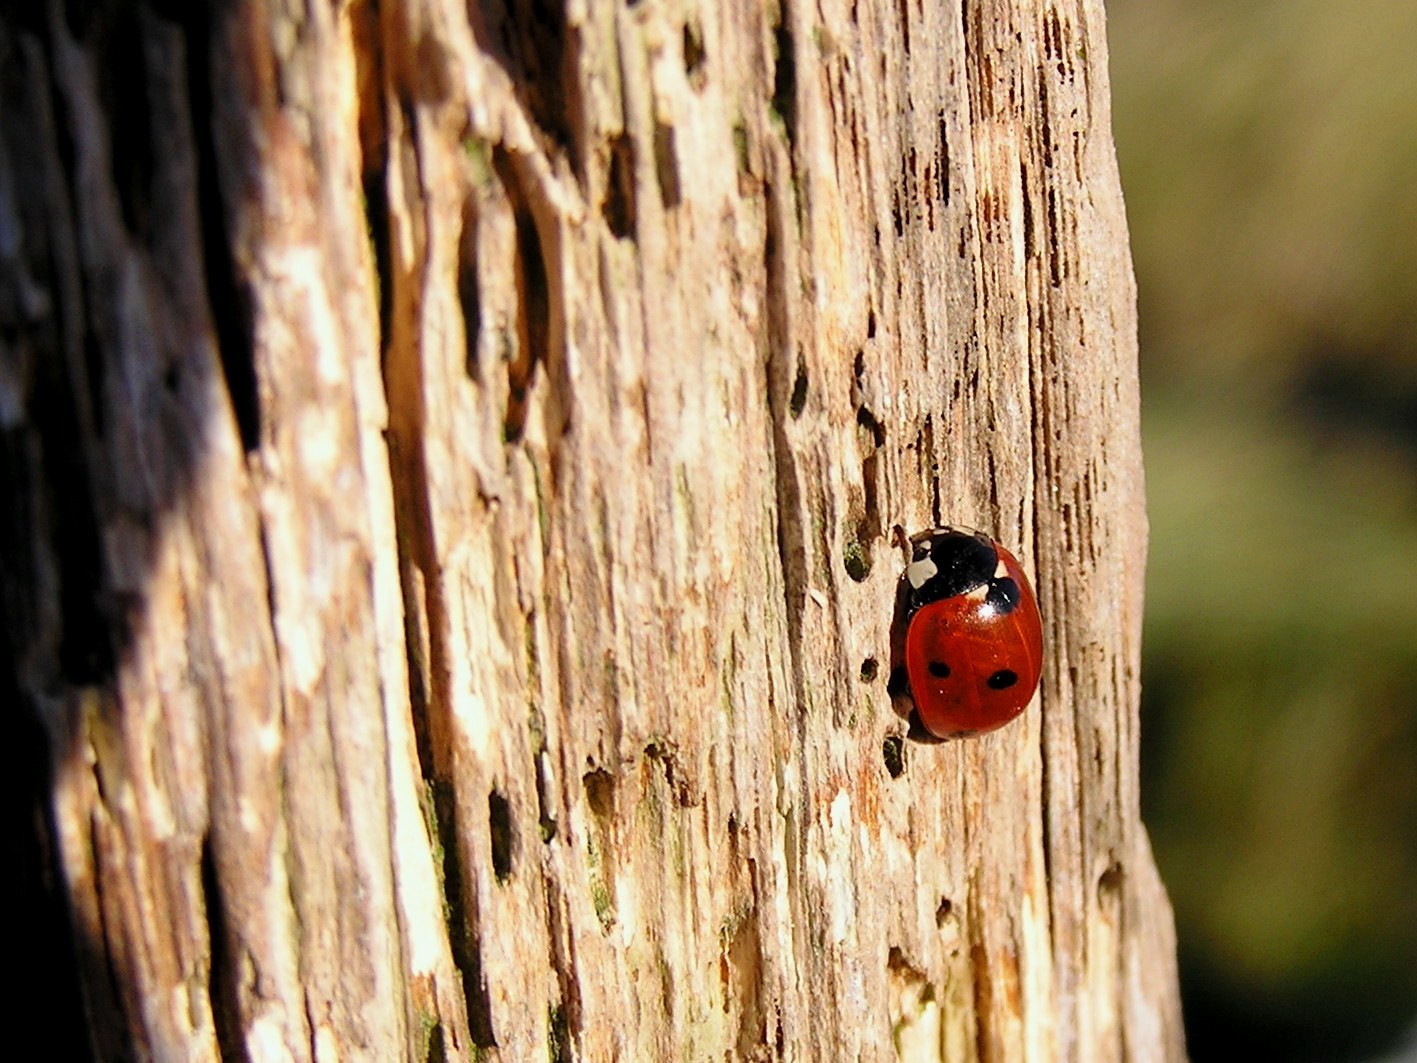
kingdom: Animalia
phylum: Arthropoda
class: Insecta
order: Coleoptera
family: Coccinellidae
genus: Coccinella
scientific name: Coccinella septempunctata
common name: Sevenspotted lady beetle
